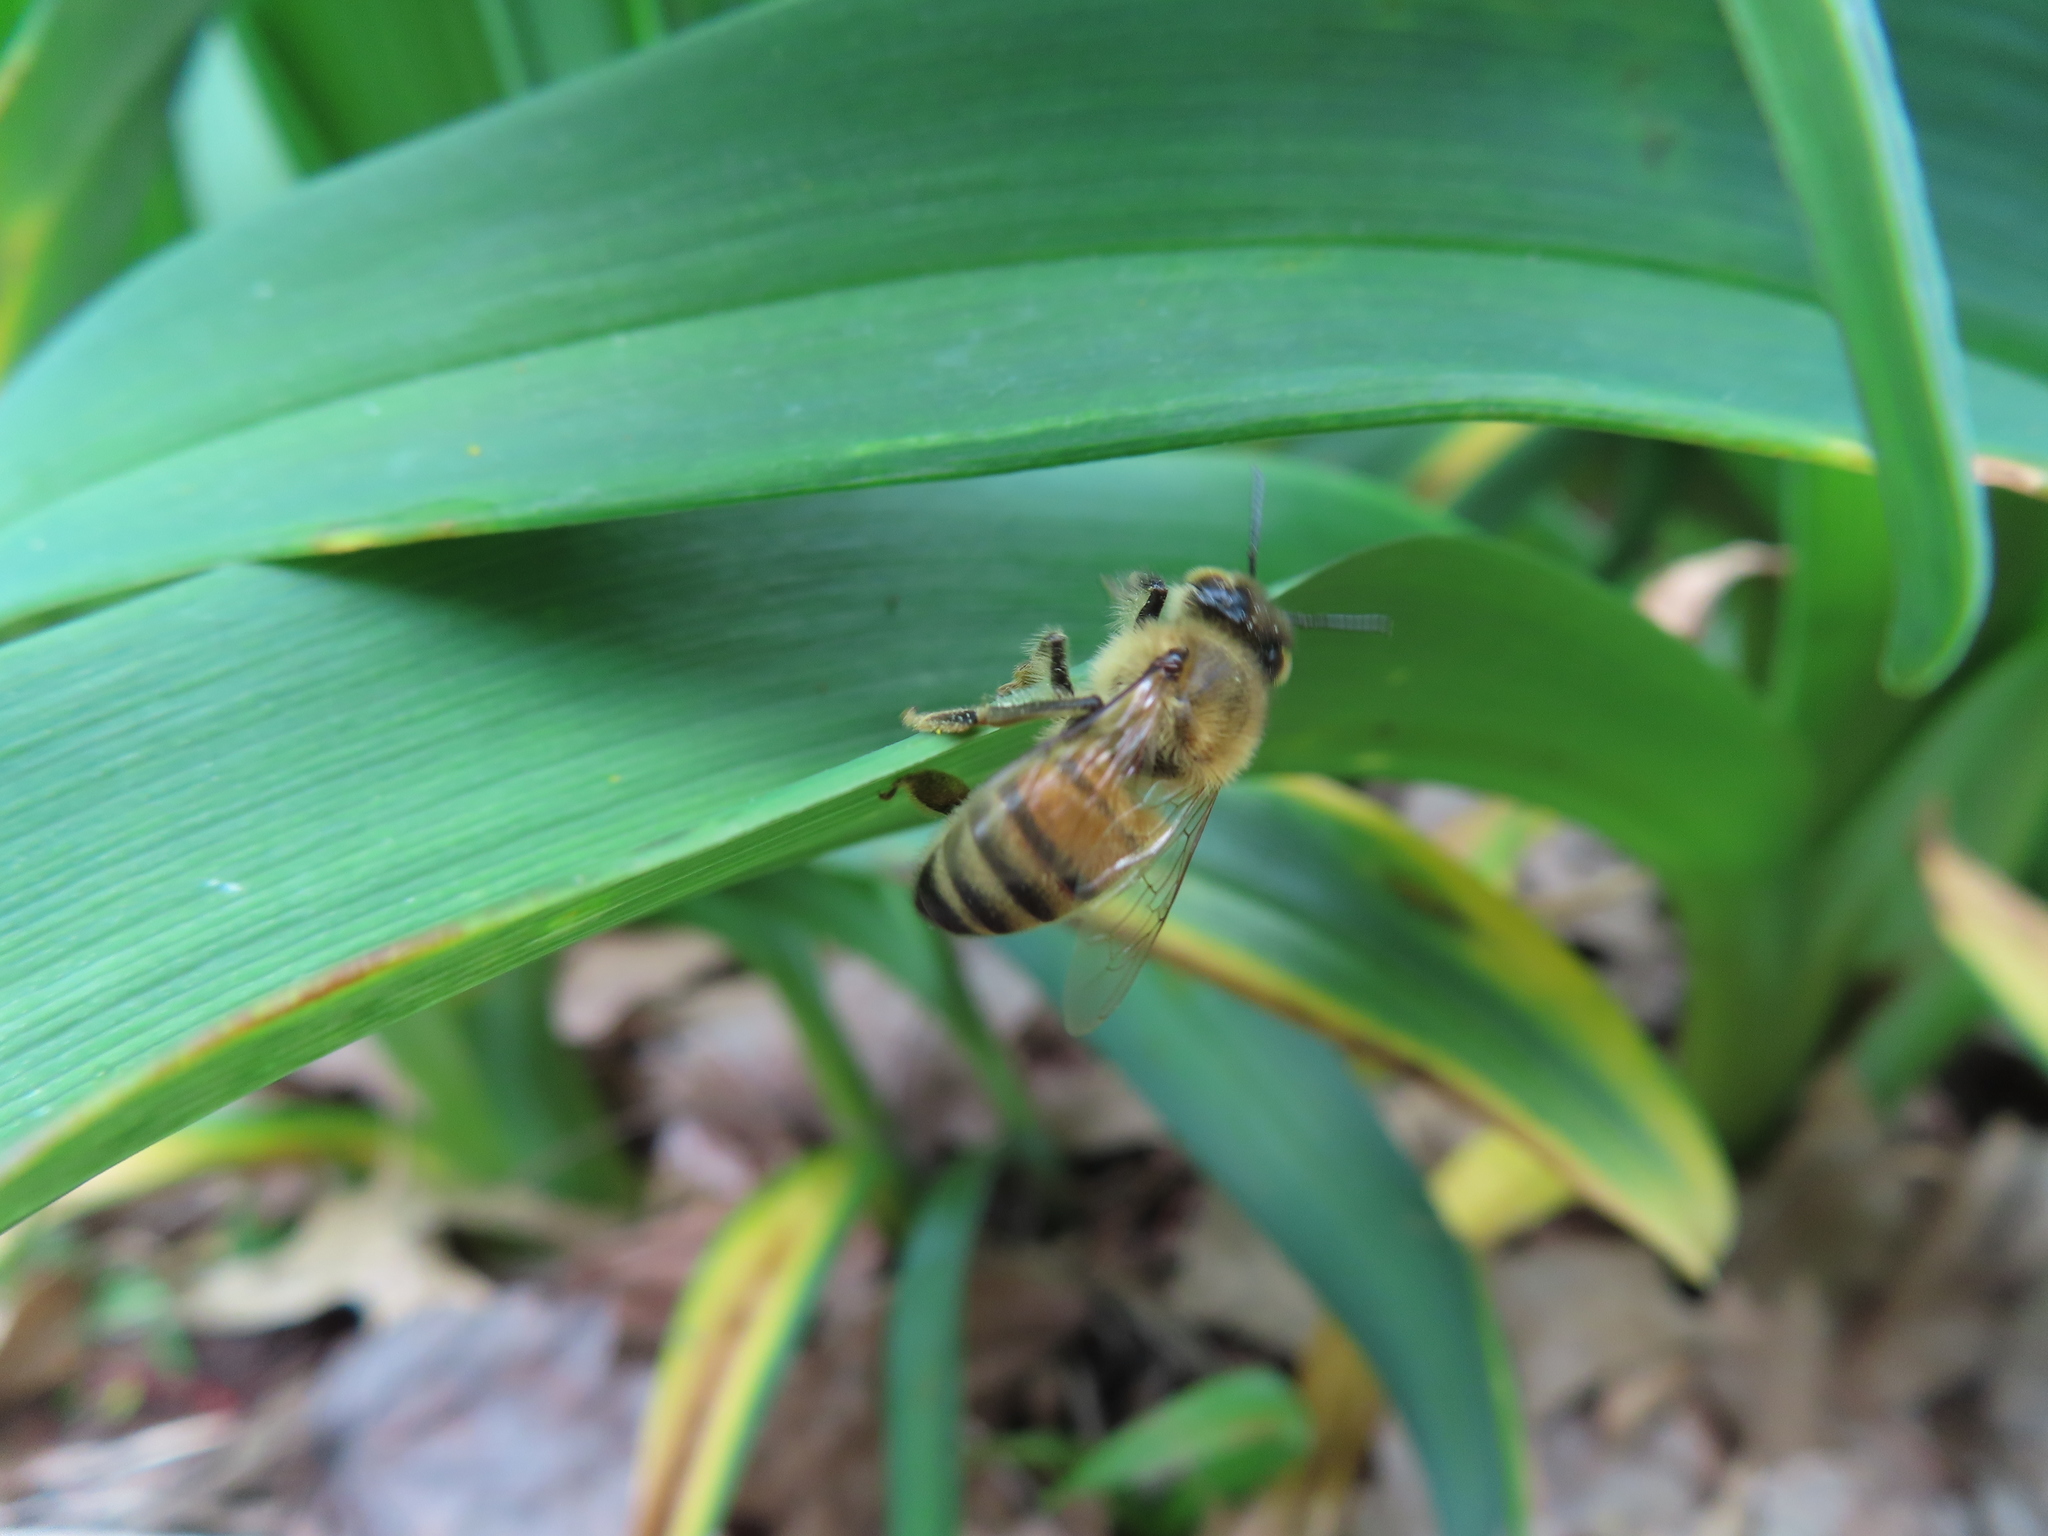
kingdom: Animalia
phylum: Arthropoda
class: Insecta
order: Hymenoptera
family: Apidae
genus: Apis
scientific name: Apis mellifera
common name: Honey bee
